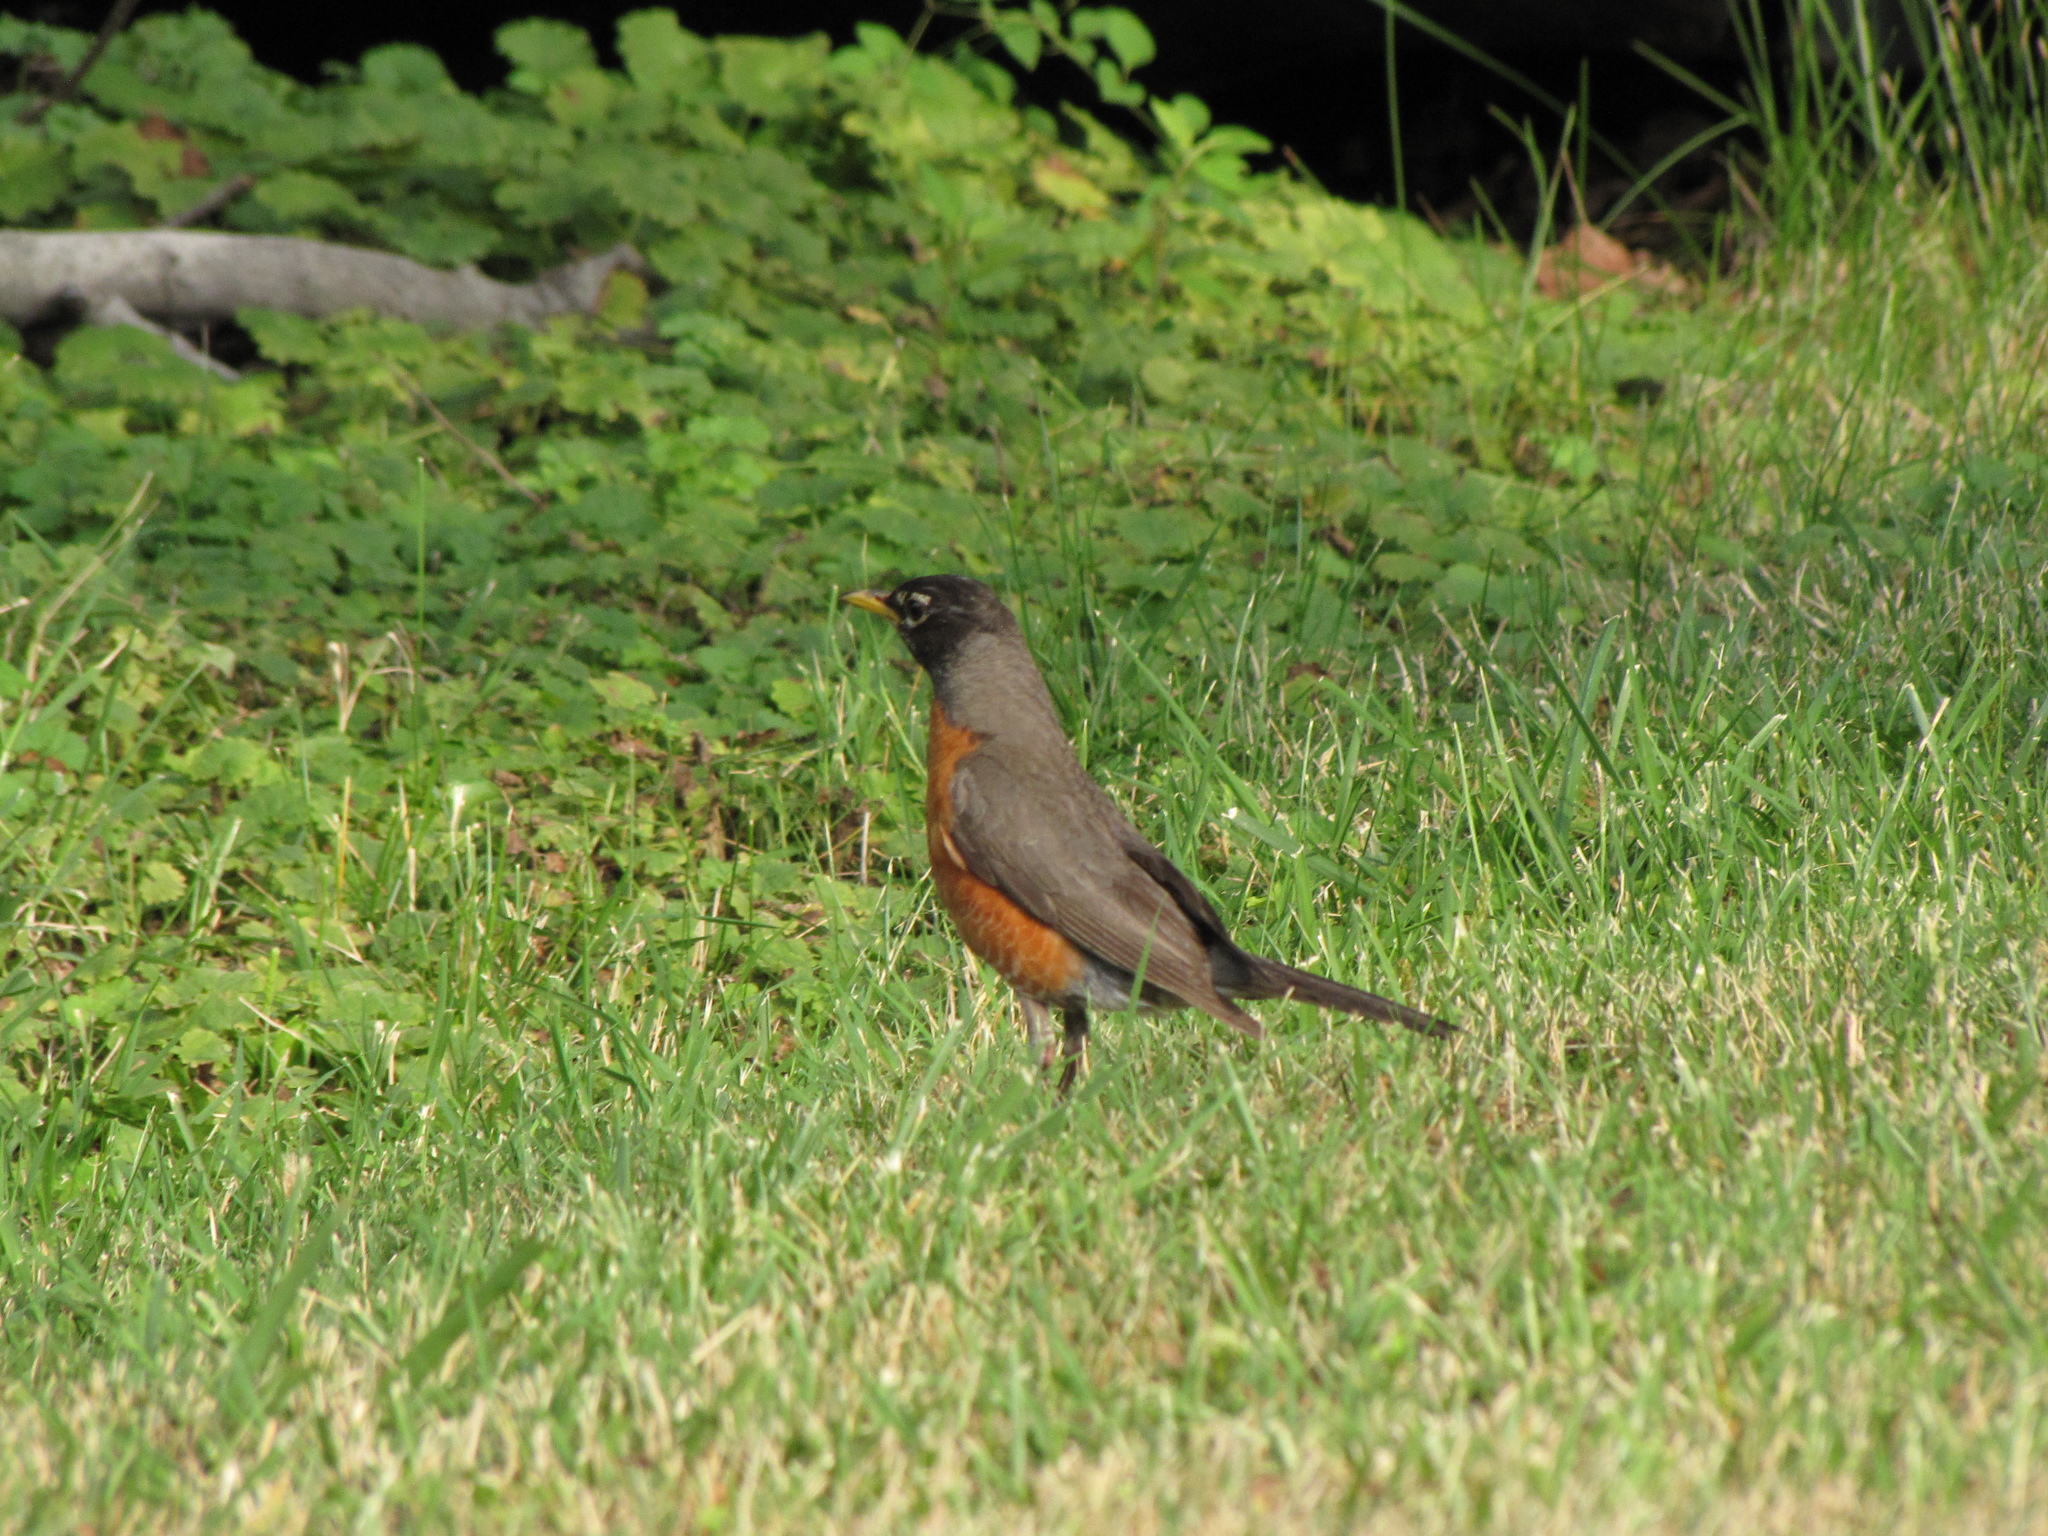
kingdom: Animalia
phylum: Chordata
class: Aves
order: Passeriformes
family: Turdidae
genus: Turdus
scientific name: Turdus migratorius
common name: American robin
